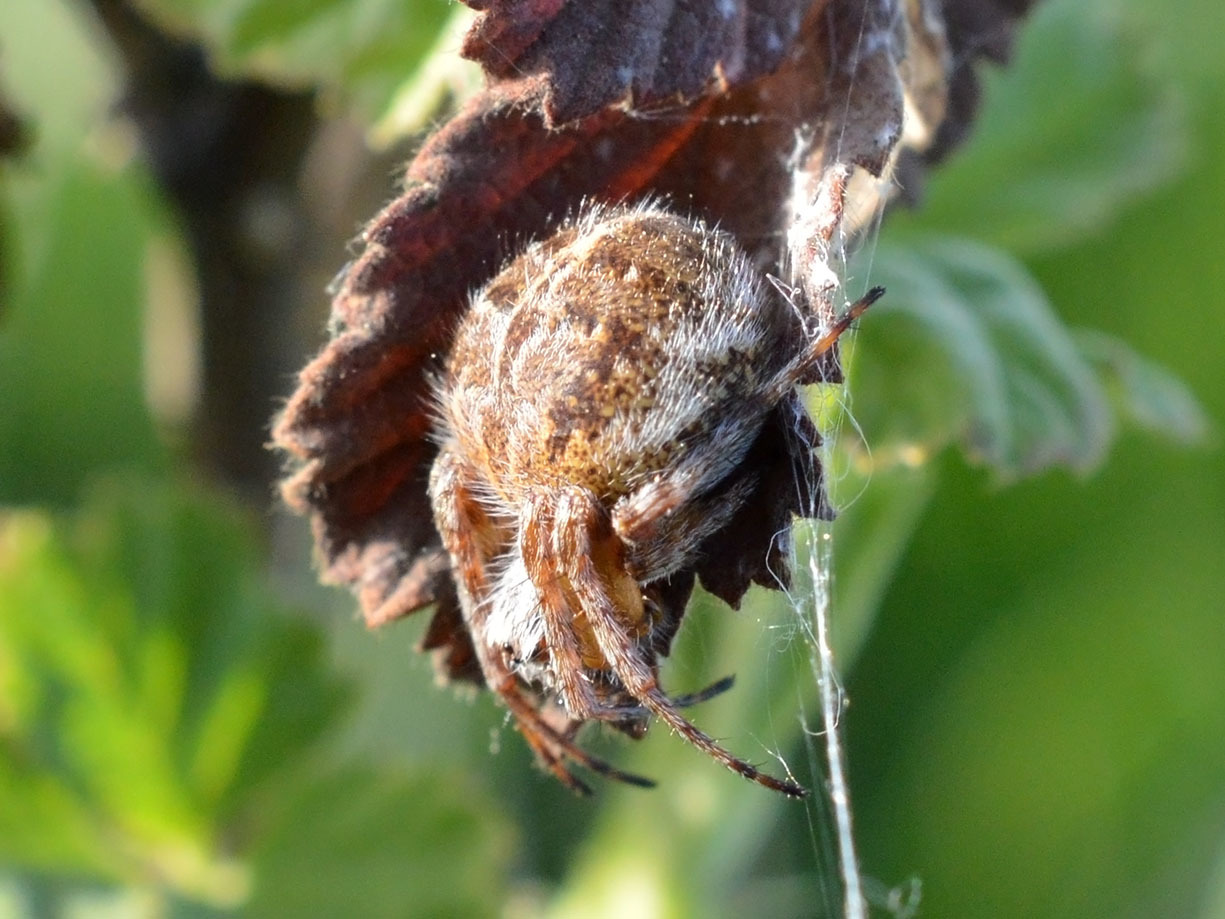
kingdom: Animalia
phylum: Arthropoda
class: Arachnida
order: Araneae
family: Araneidae
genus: Agalenatea
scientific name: Agalenatea redii
